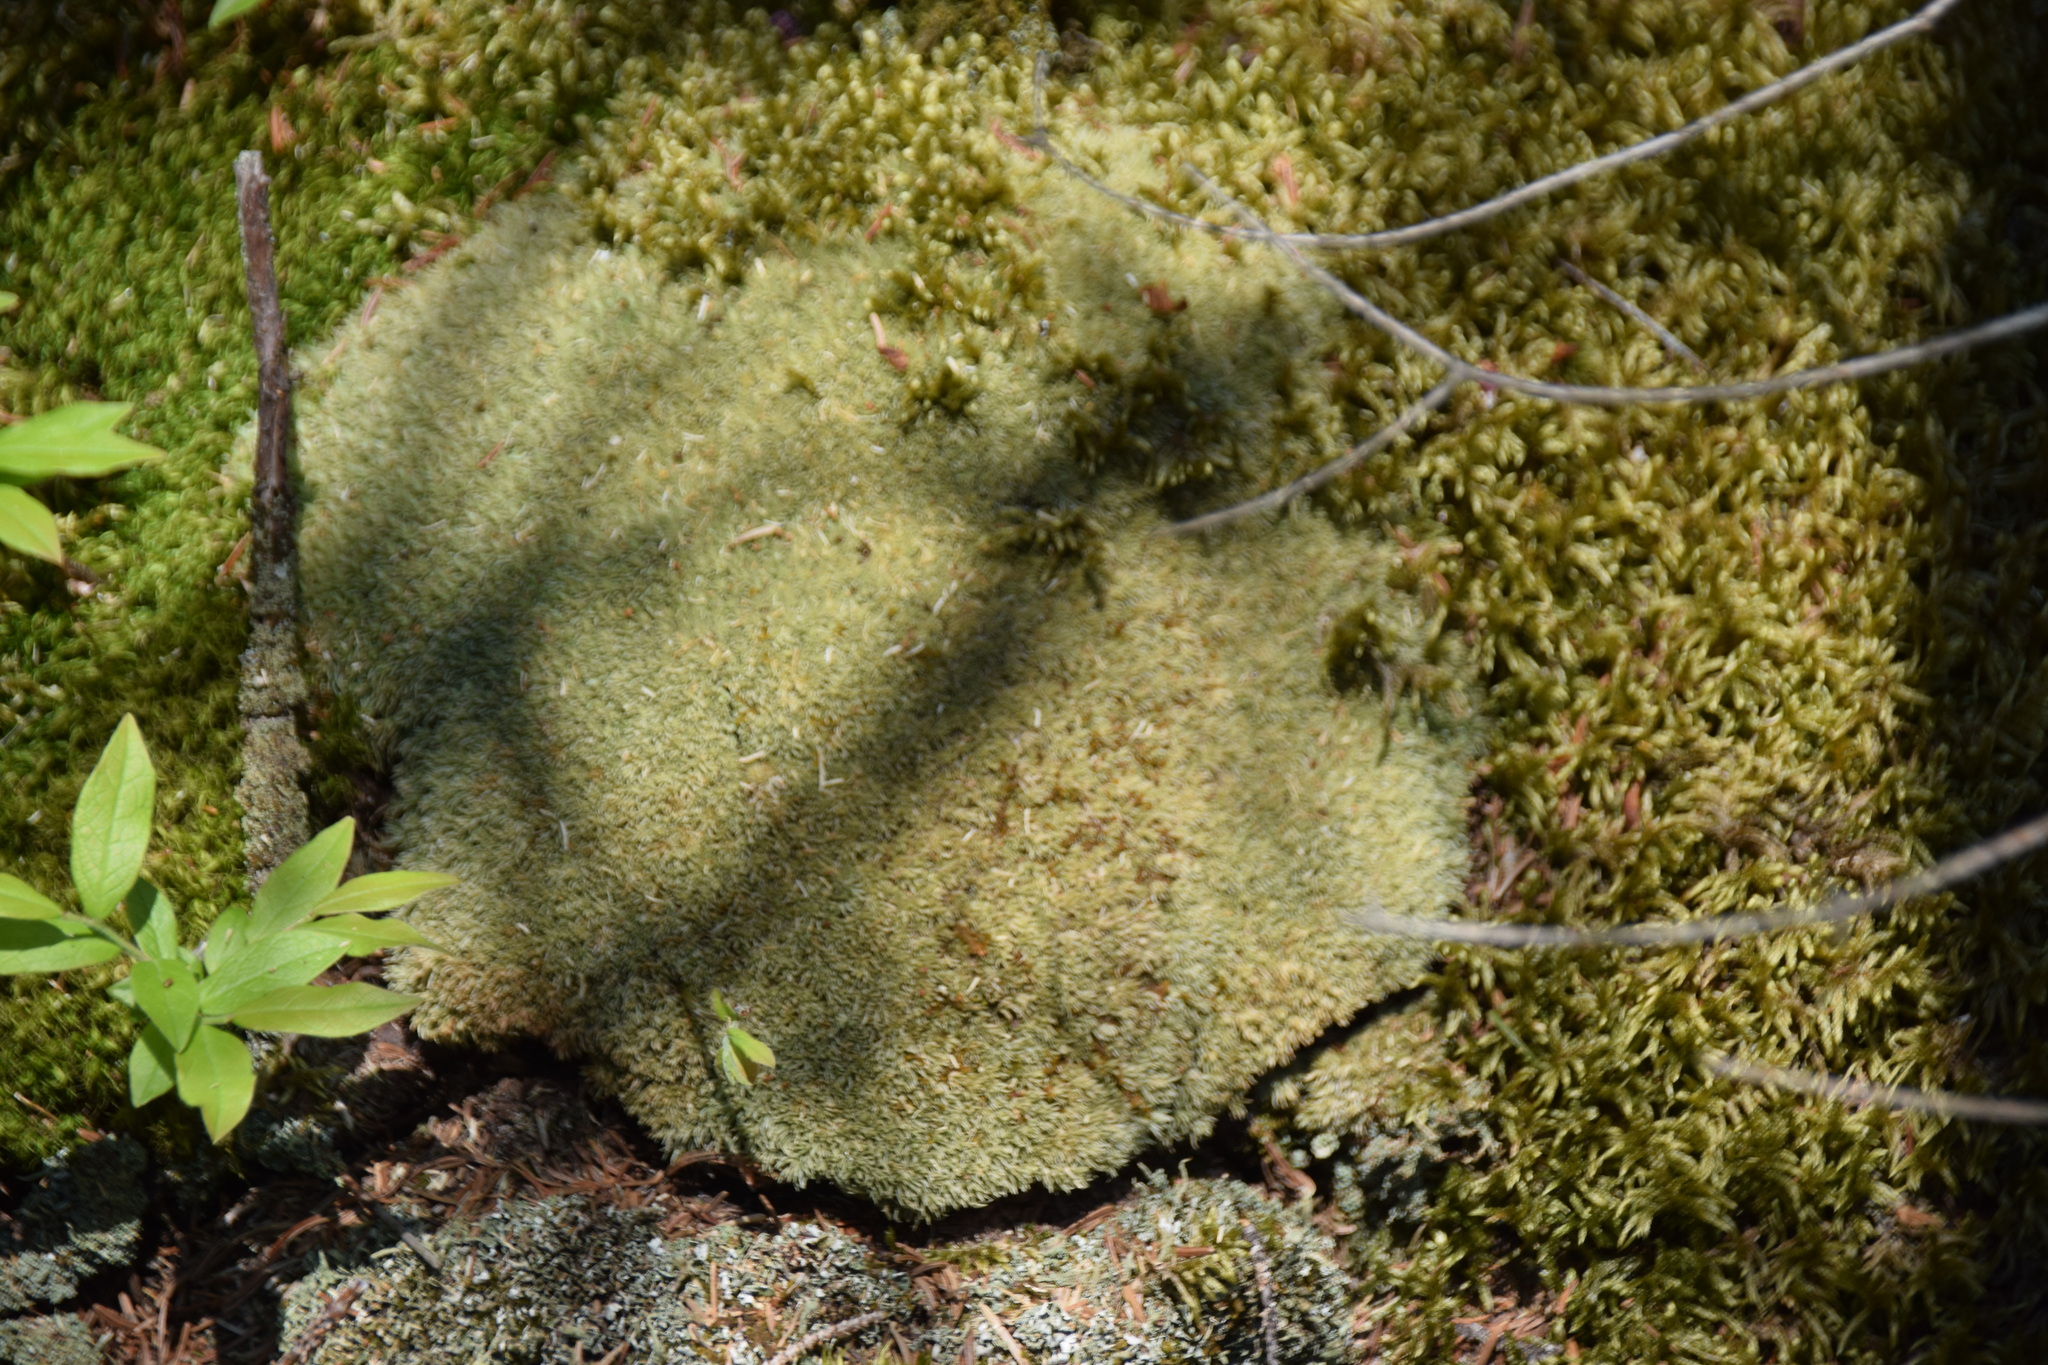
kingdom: Plantae
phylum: Bryophyta
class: Bryopsida
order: Dicranales
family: Leucobryaceae
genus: Leucobryum
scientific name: Leucobryum glaucum
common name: Large white-moss
